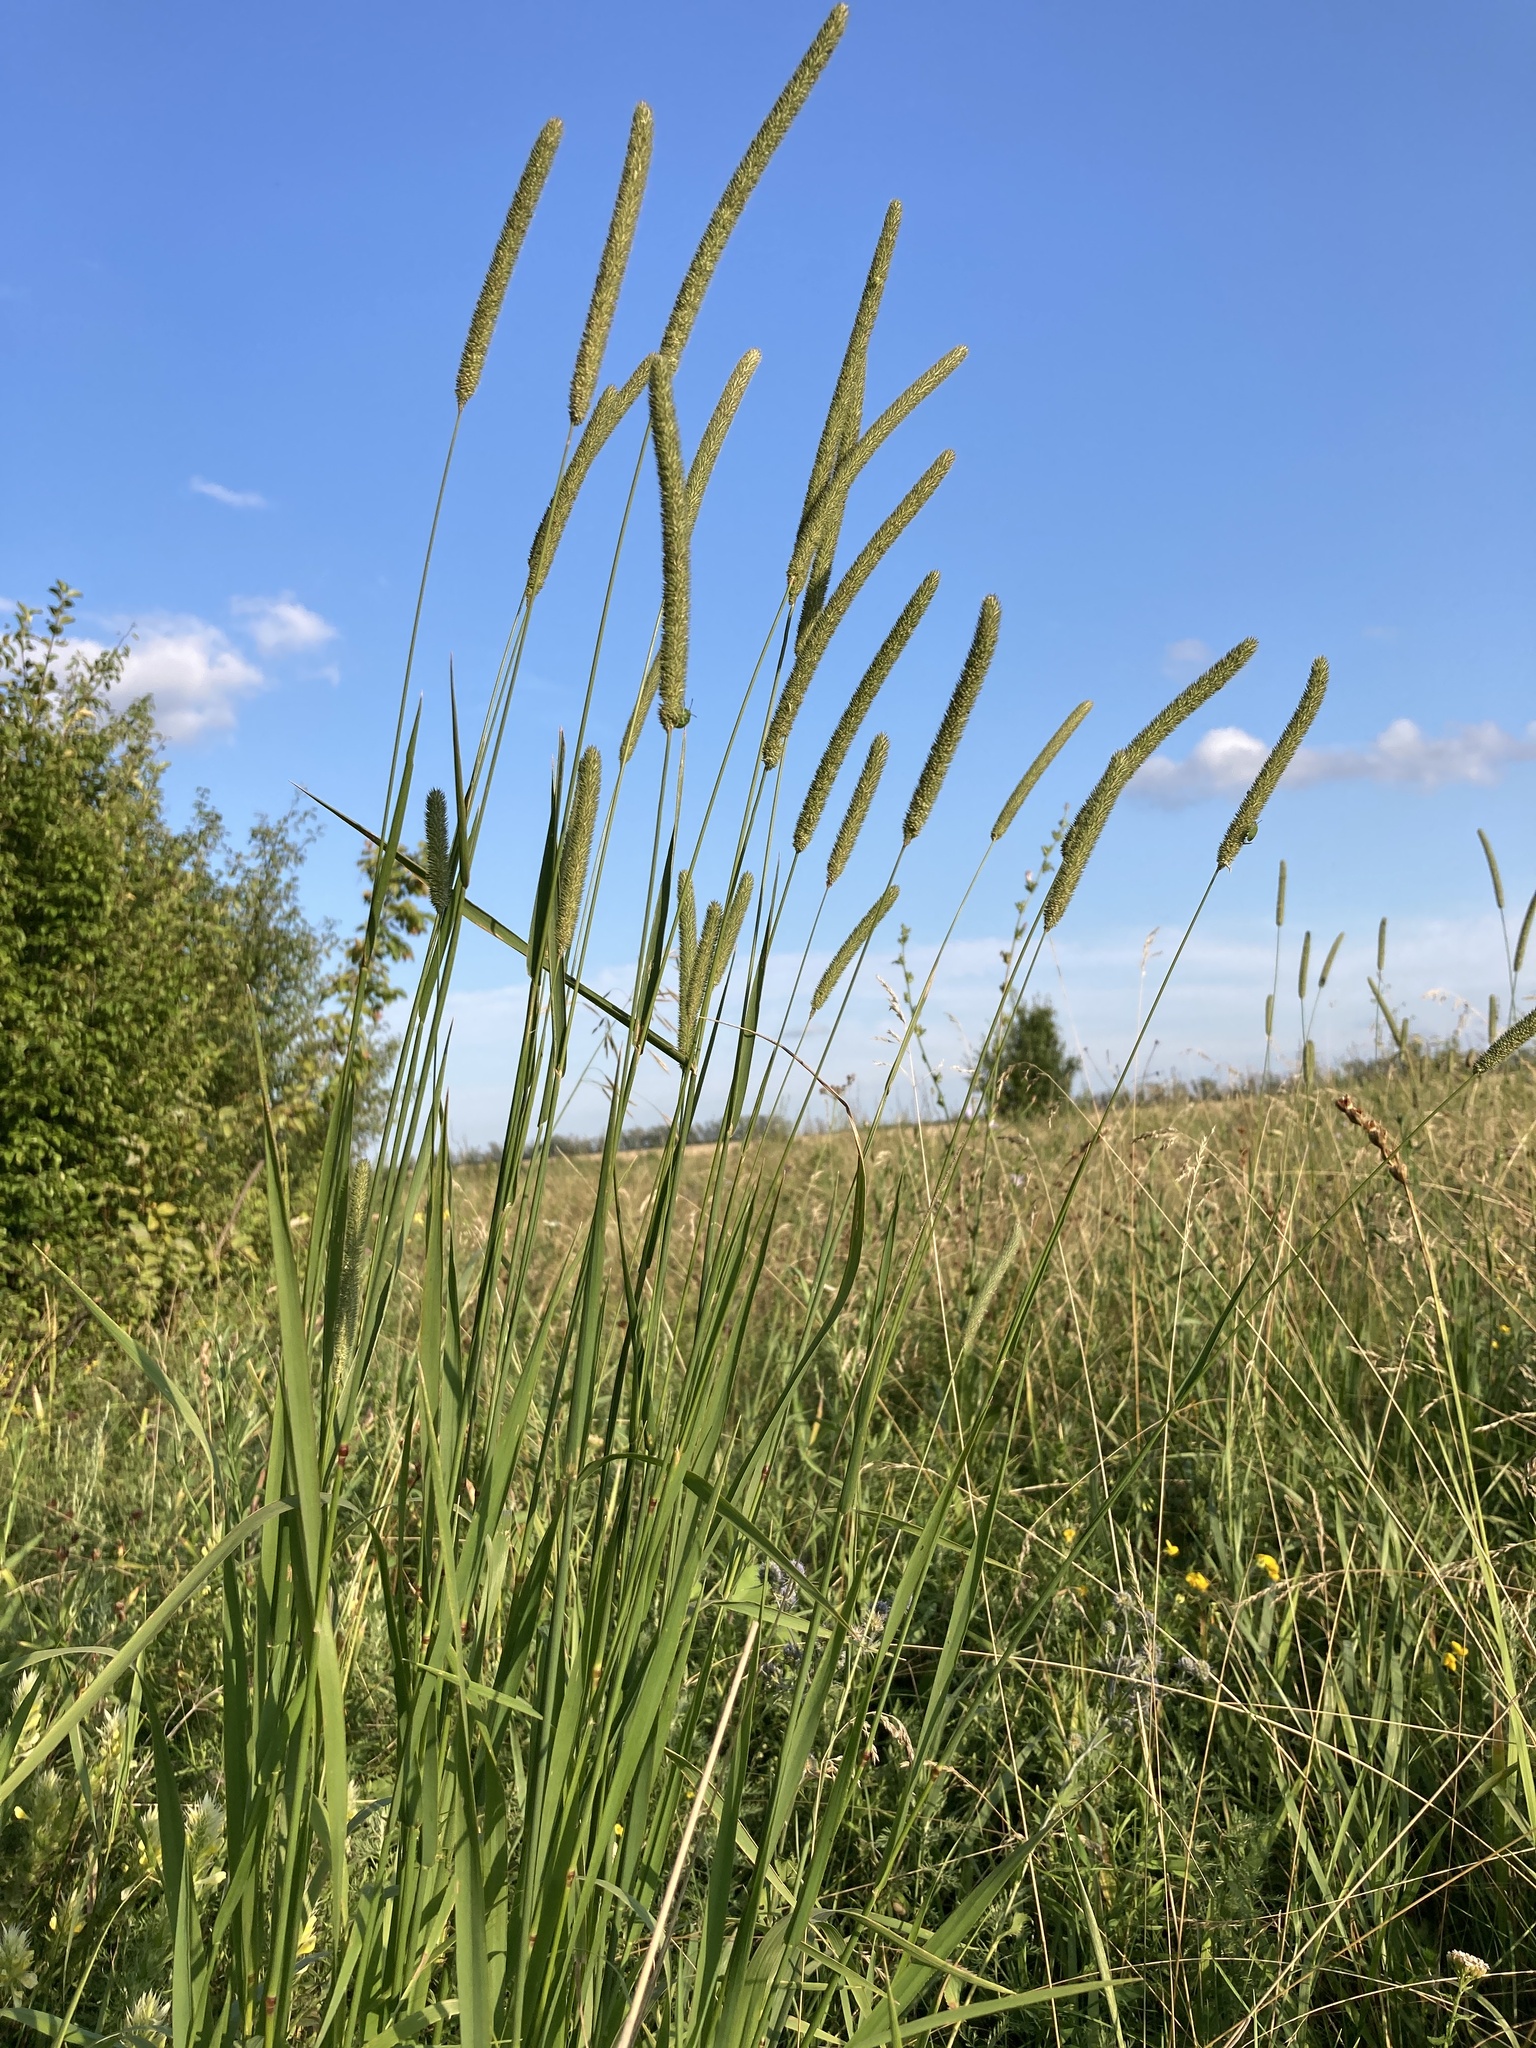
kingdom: Plantae
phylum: Tracheophyta
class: Liliopsida
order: Poales
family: Poaceae
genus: Phleum
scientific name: Phleum pratense
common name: Timothy grass
